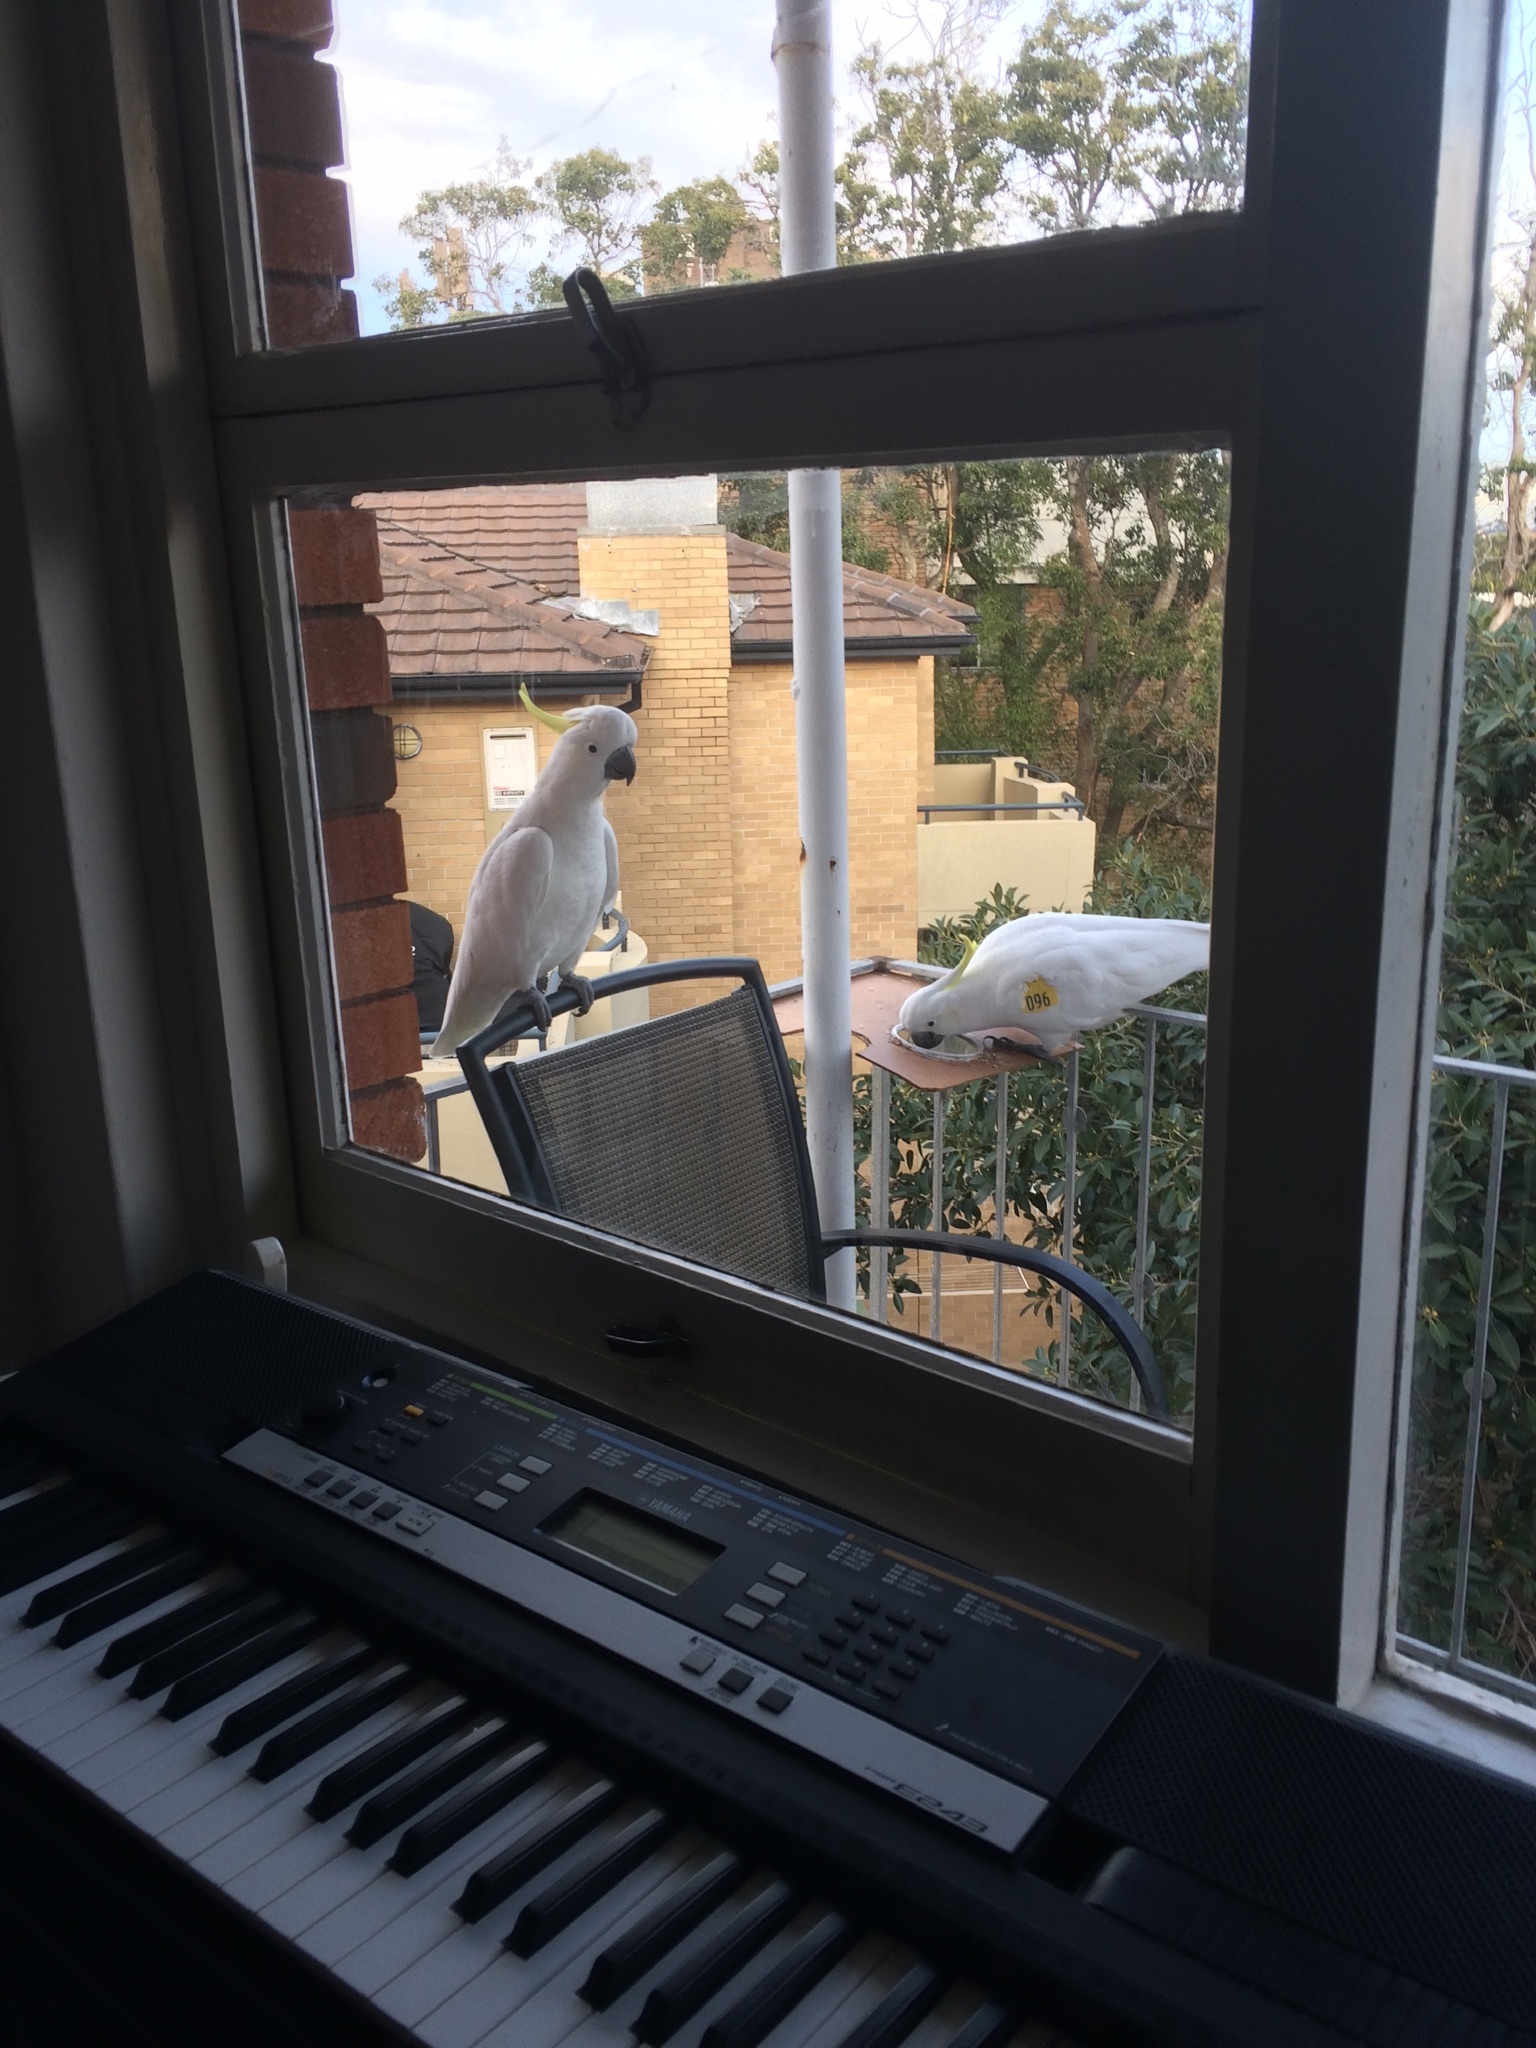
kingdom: Animalia
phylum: Chordata
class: Aves
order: Psittaciformes
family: Psittacidae
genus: Cacatua
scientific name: Cacatua galerita
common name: Sulphur-crested cockatoo
